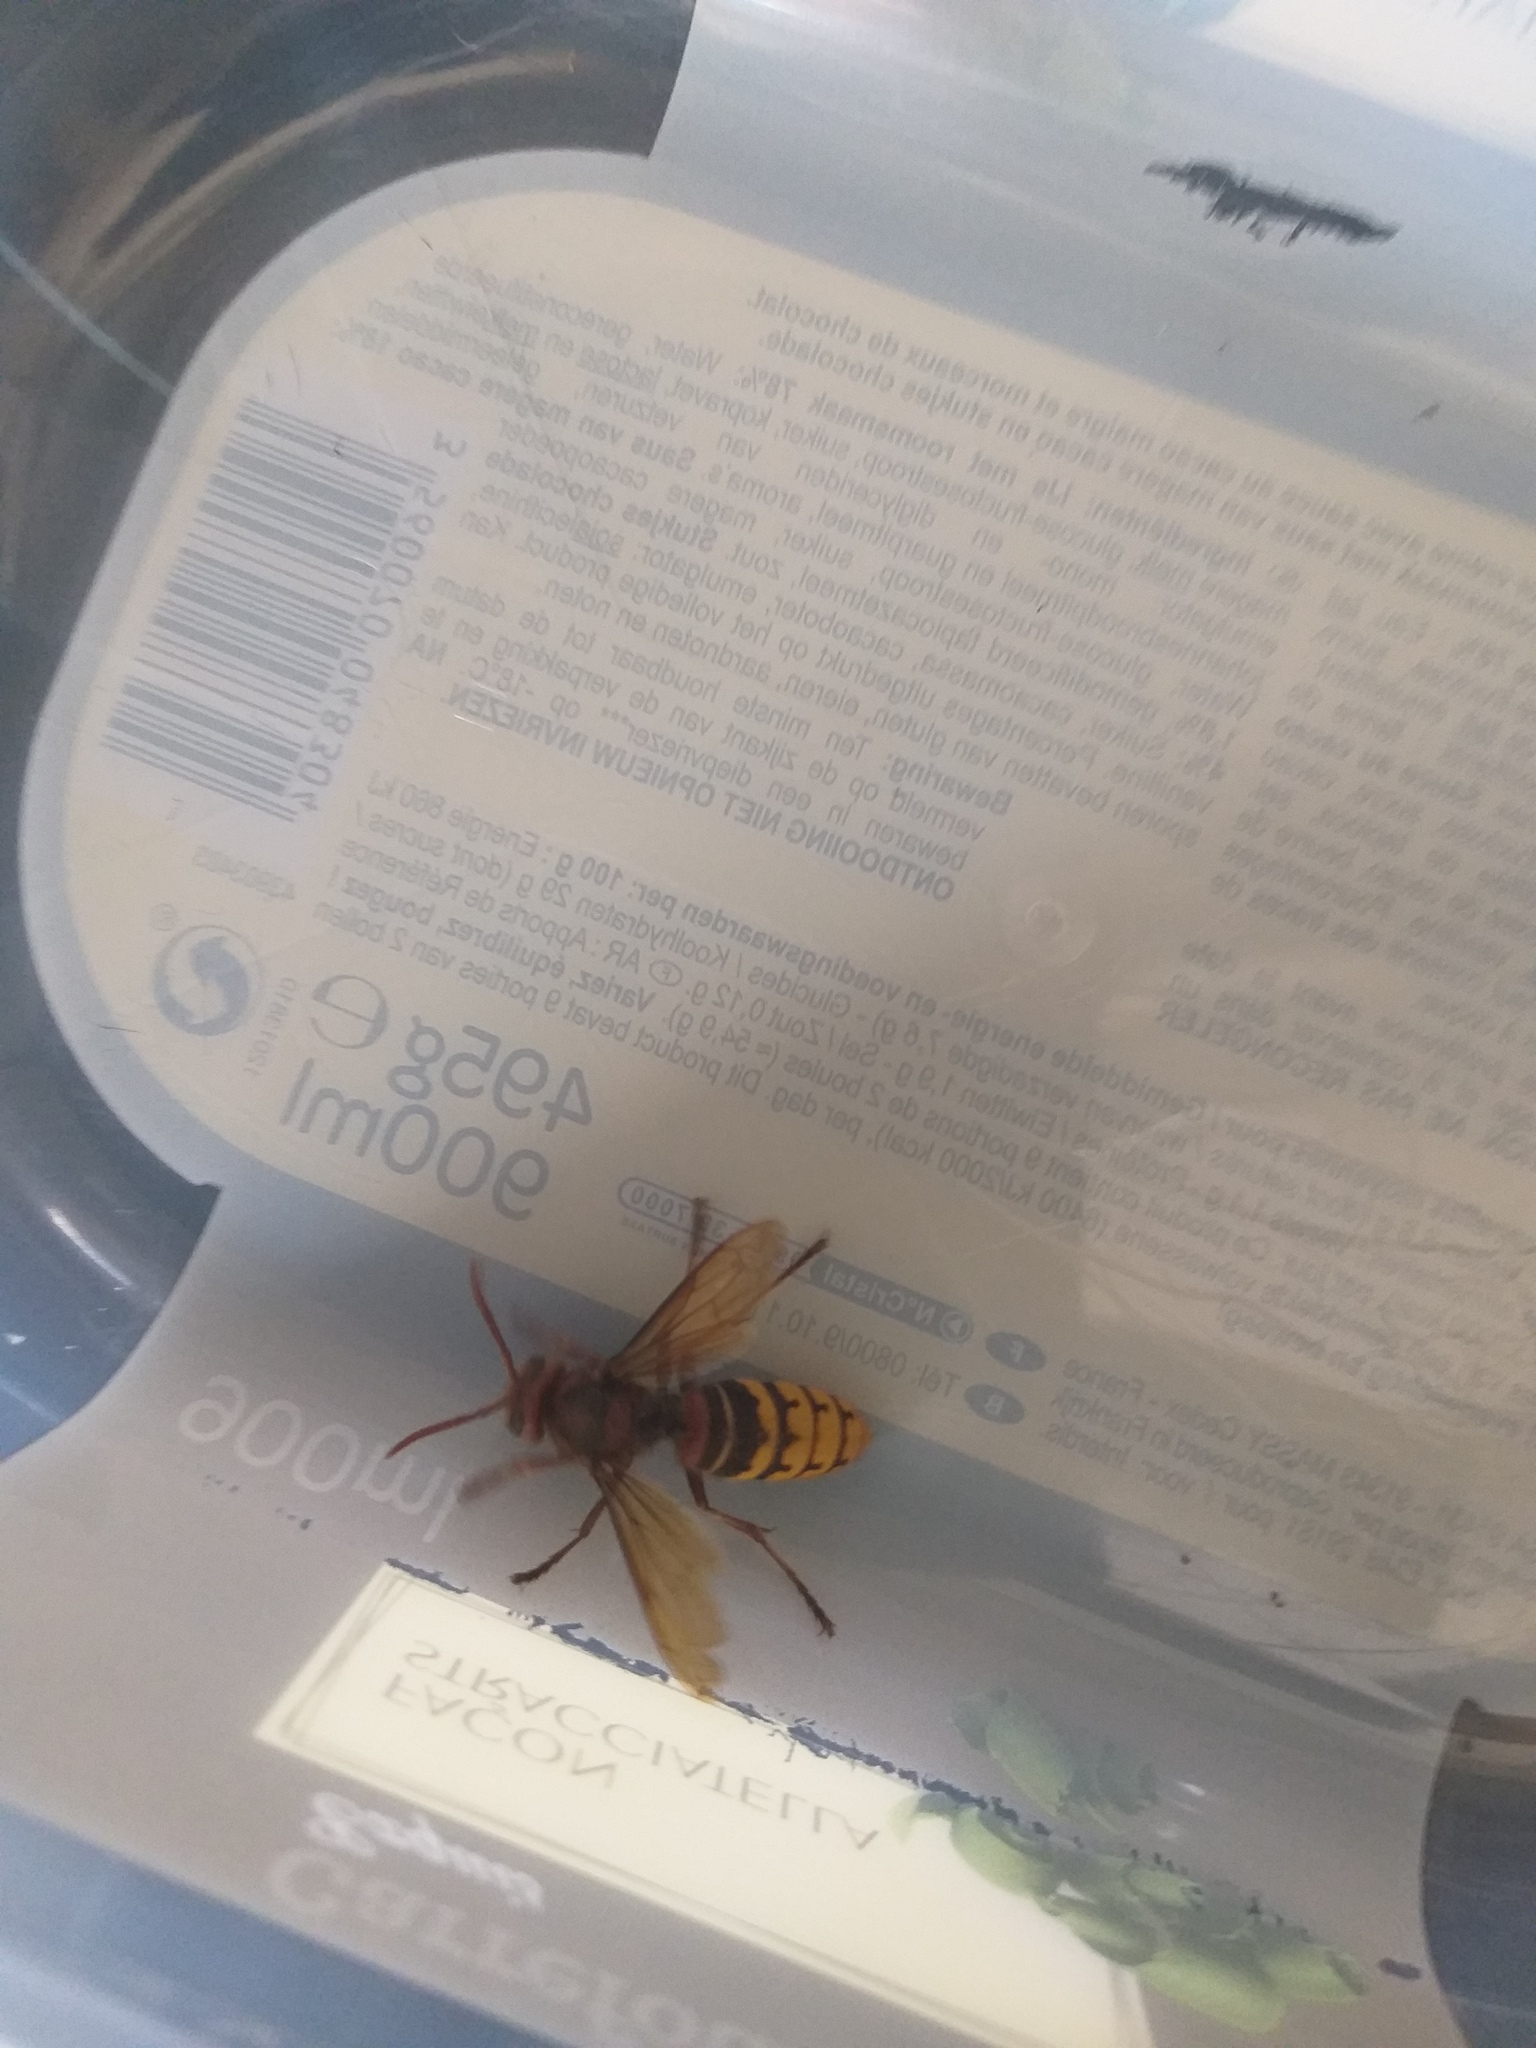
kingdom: Animalia
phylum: Arthropoda
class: Insecta
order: Hymenoptera
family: Vespidae
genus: Vespa
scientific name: Vespa crabro
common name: Hornet
